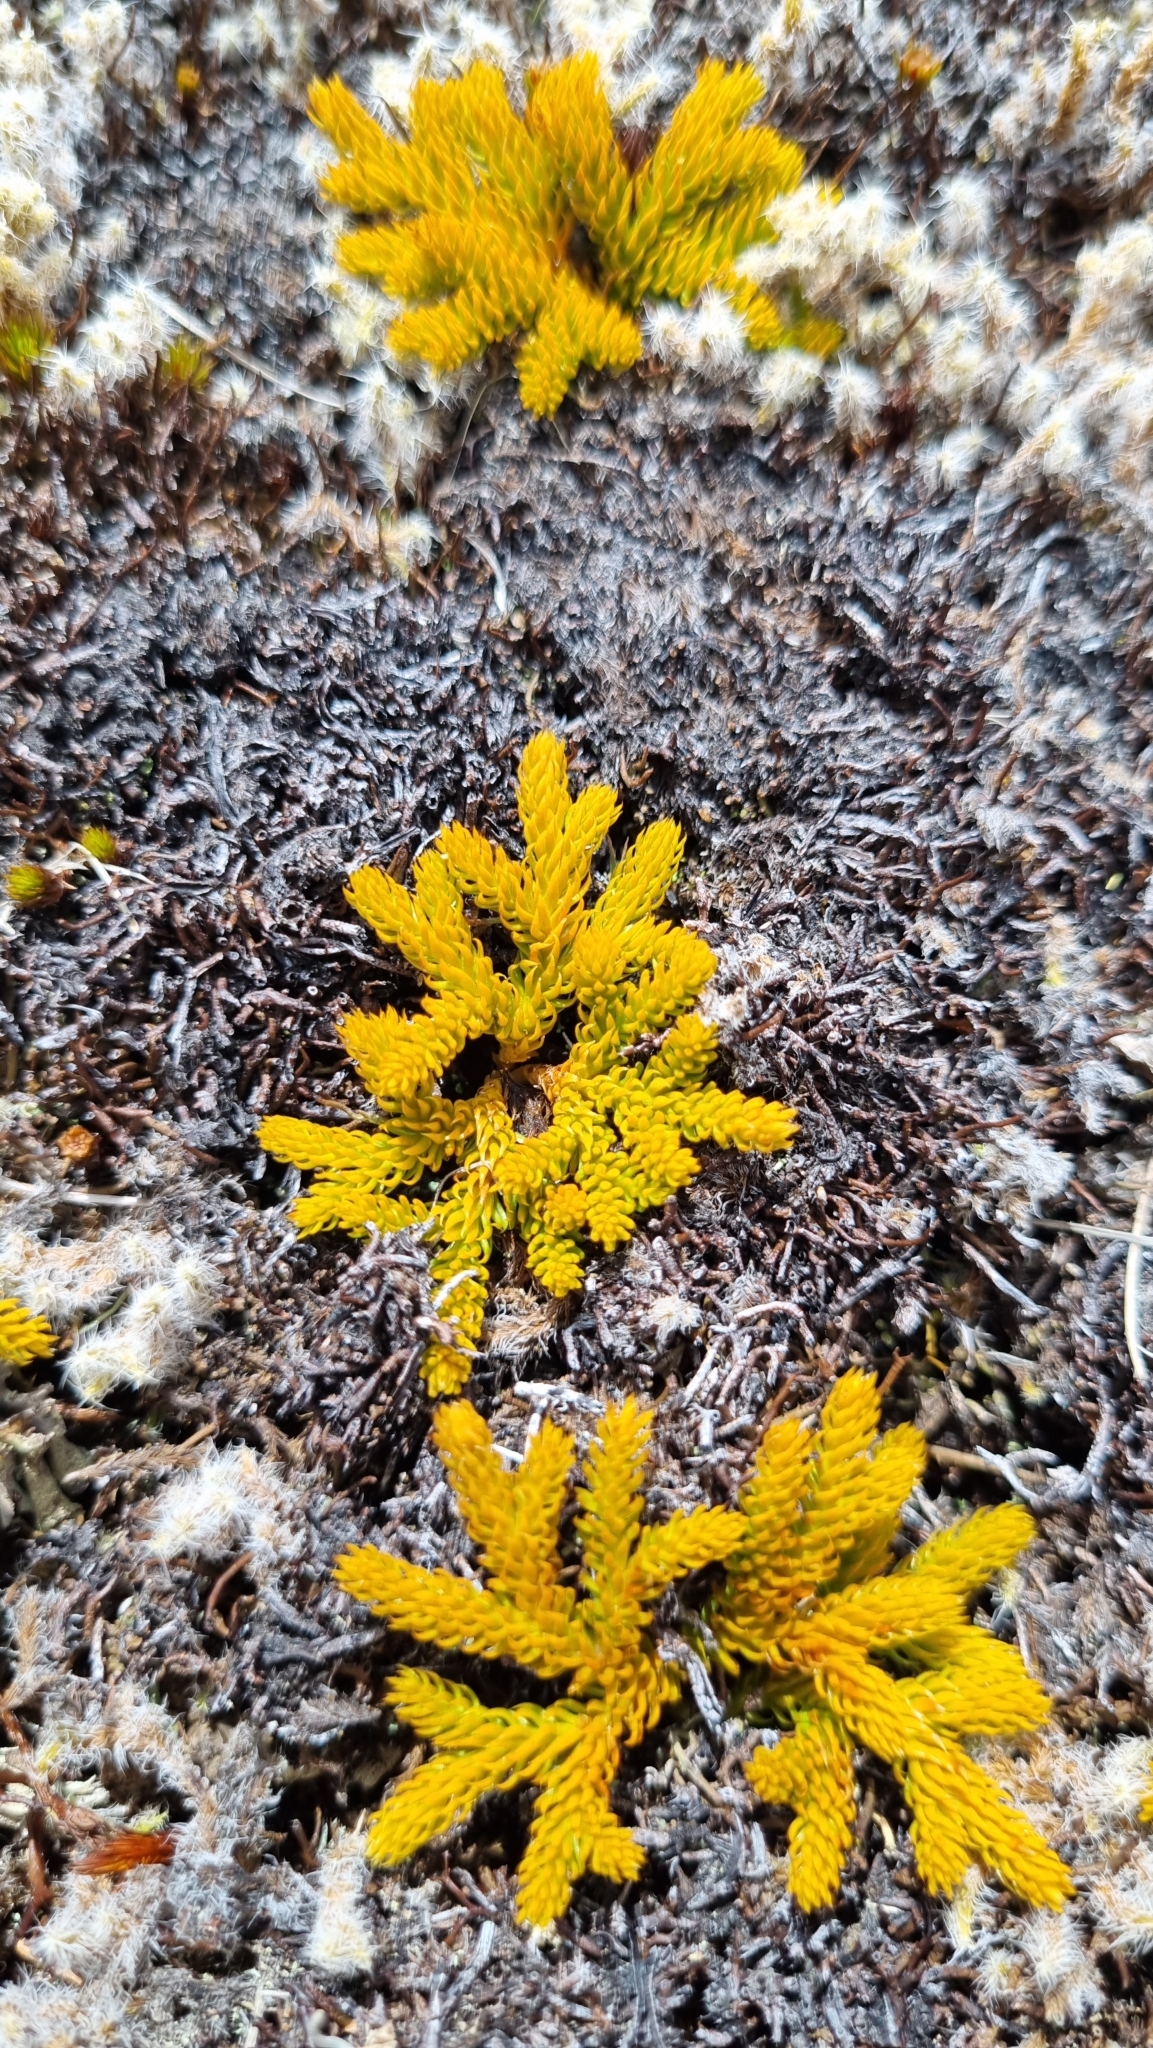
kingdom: Plantae
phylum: Tracheophyta
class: Lycopodiopsida
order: Lycopodiales
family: Lycopodiaceae
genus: Austrolycopodium
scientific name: Austrolycopodium fastigiatum
